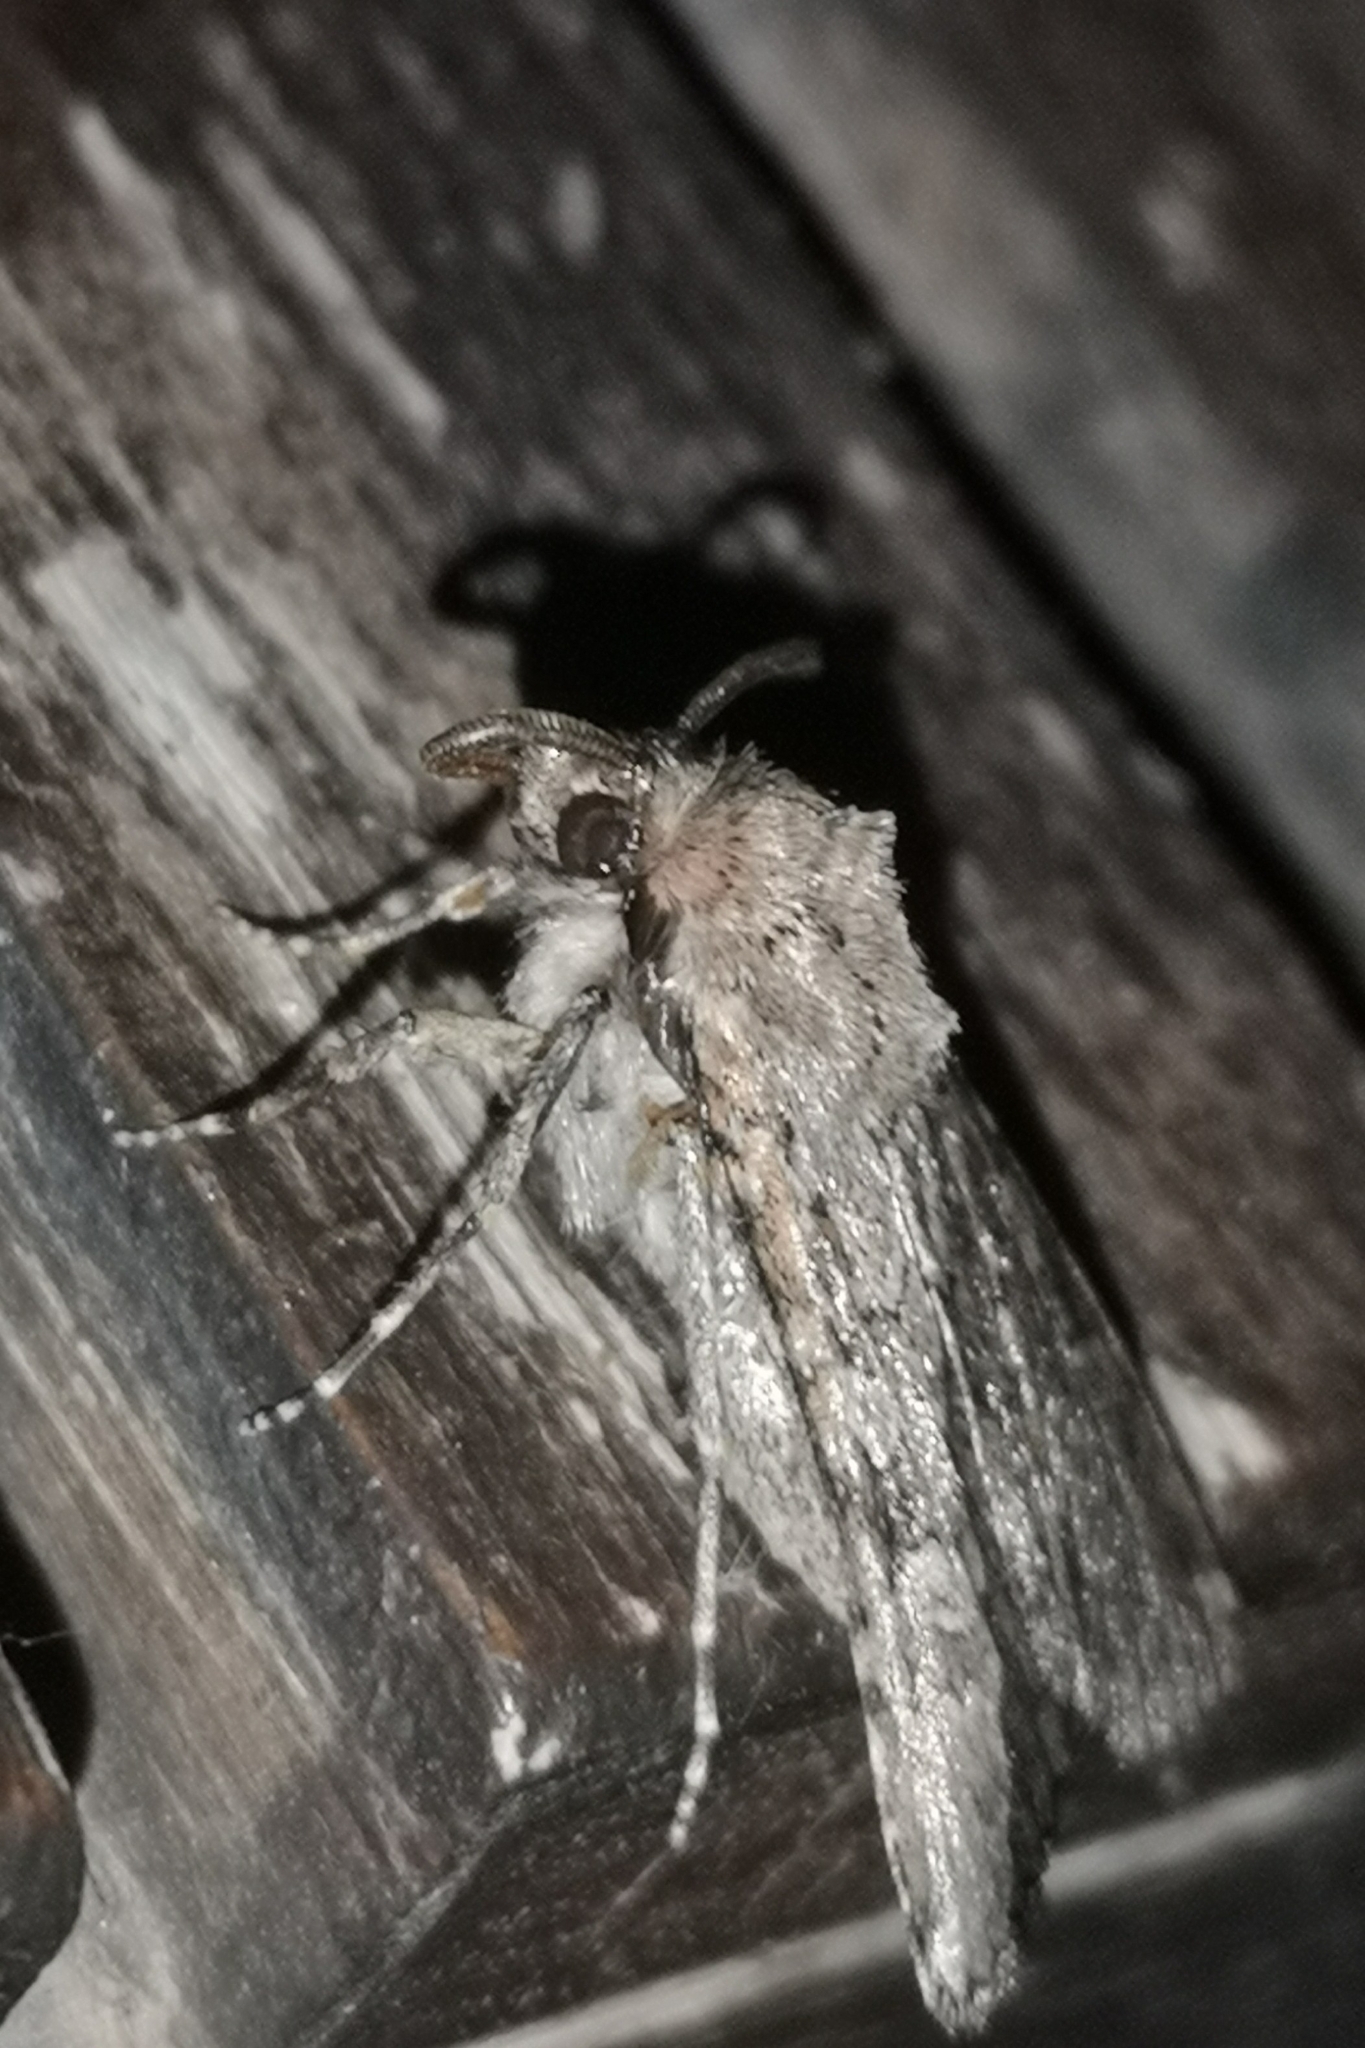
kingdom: Animalia
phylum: Arthropoda
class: Insecta
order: Lepidoptera
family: Noctuidae
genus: Euxoa
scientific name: Euxoa canariensis
